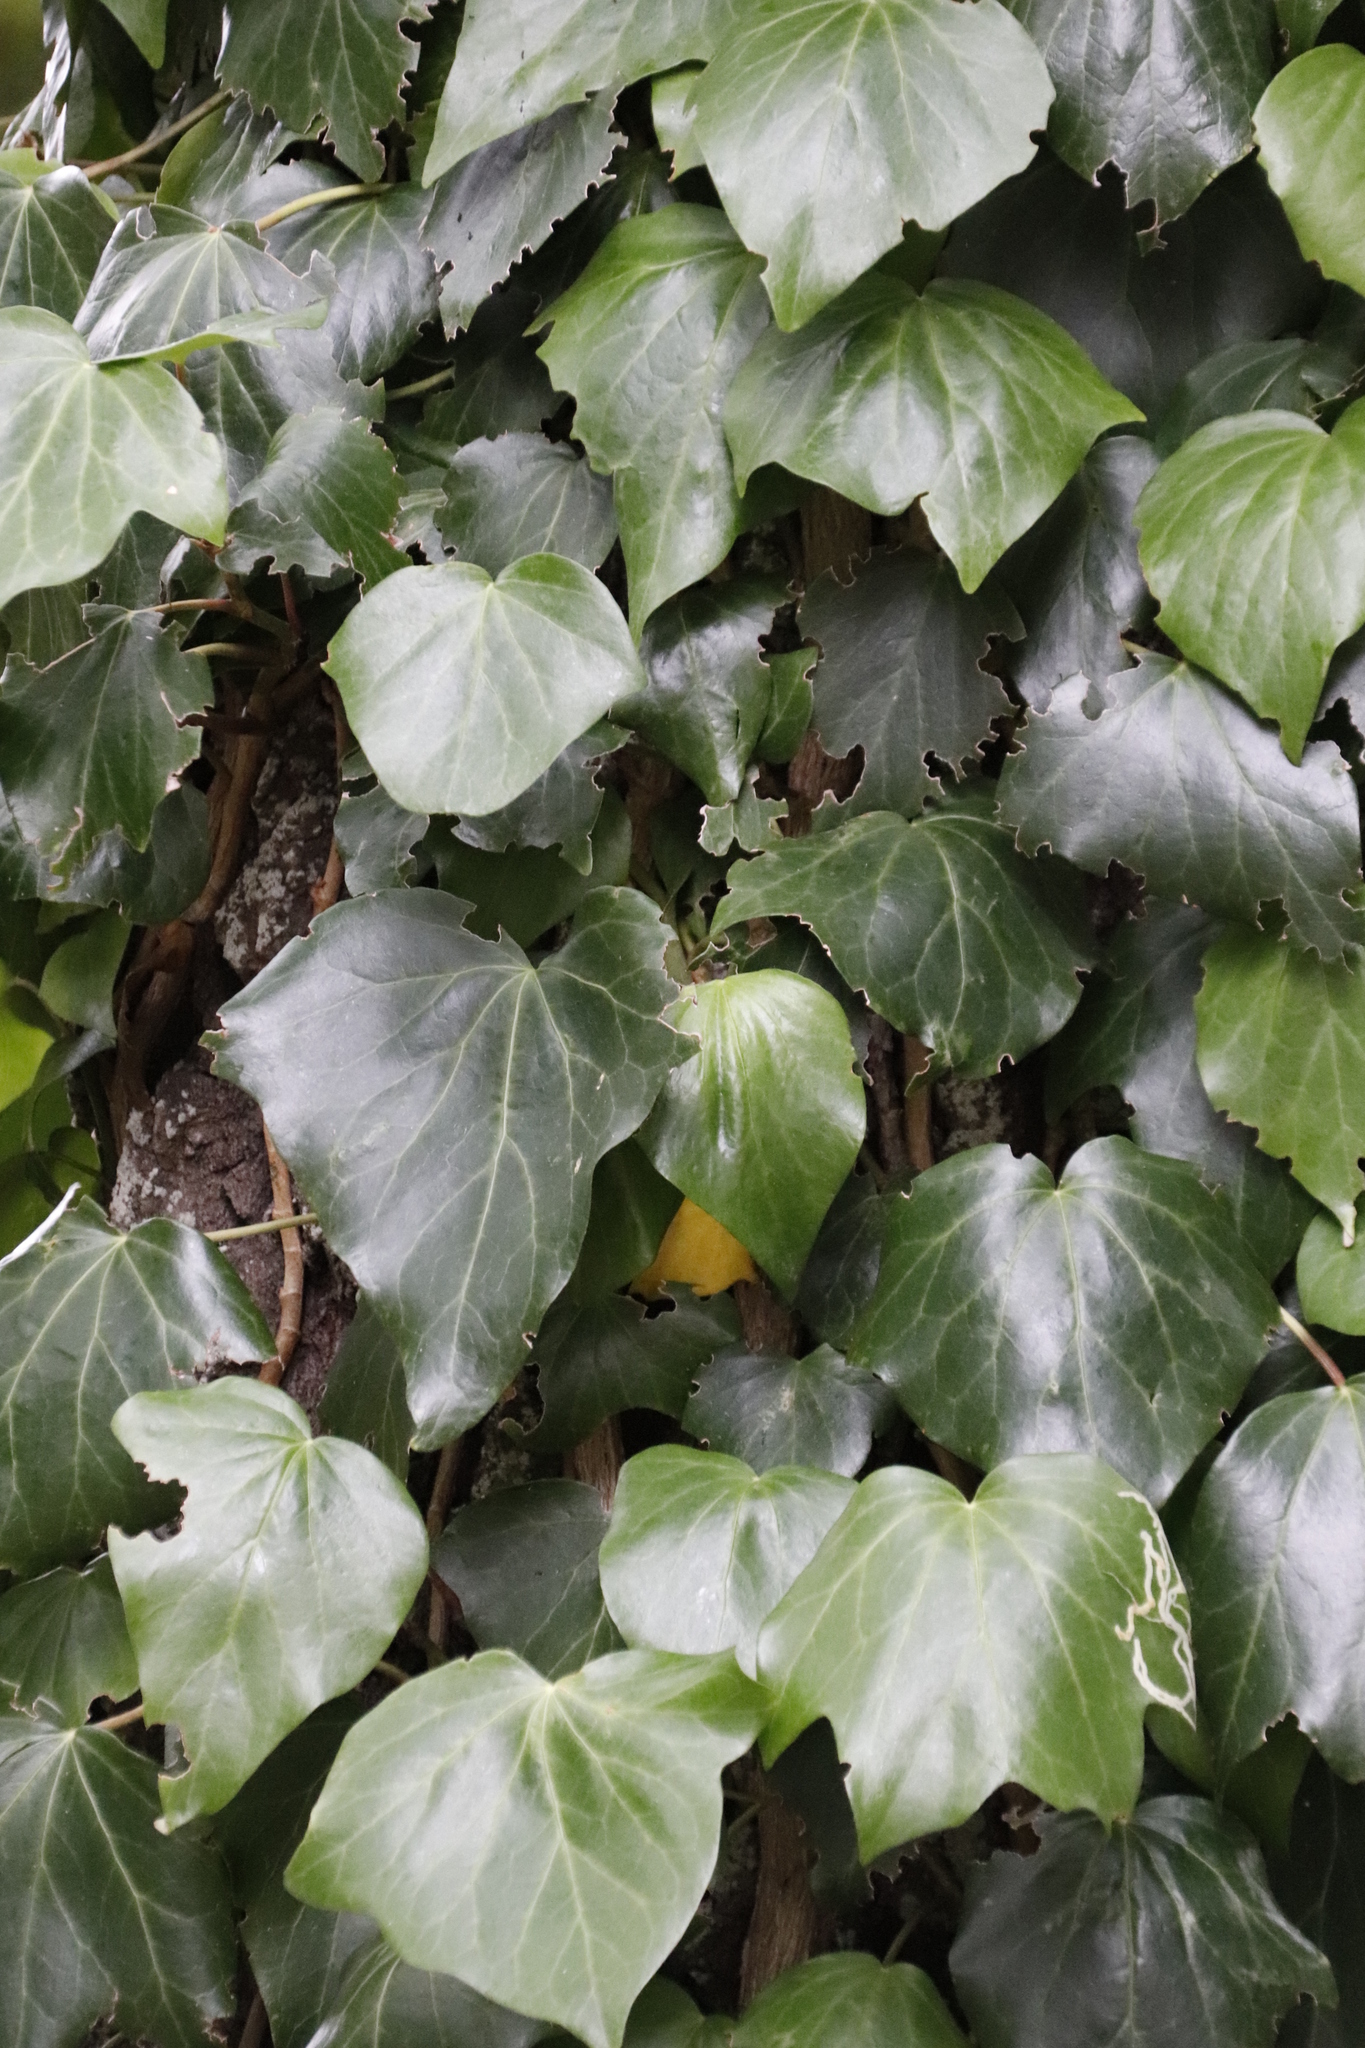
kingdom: Plantae
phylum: Tracheophyta
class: Magnoliopsida
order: Apiales
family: Araliaceae
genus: Hedera
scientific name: Hedera canariensis
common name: Madeira ivy
